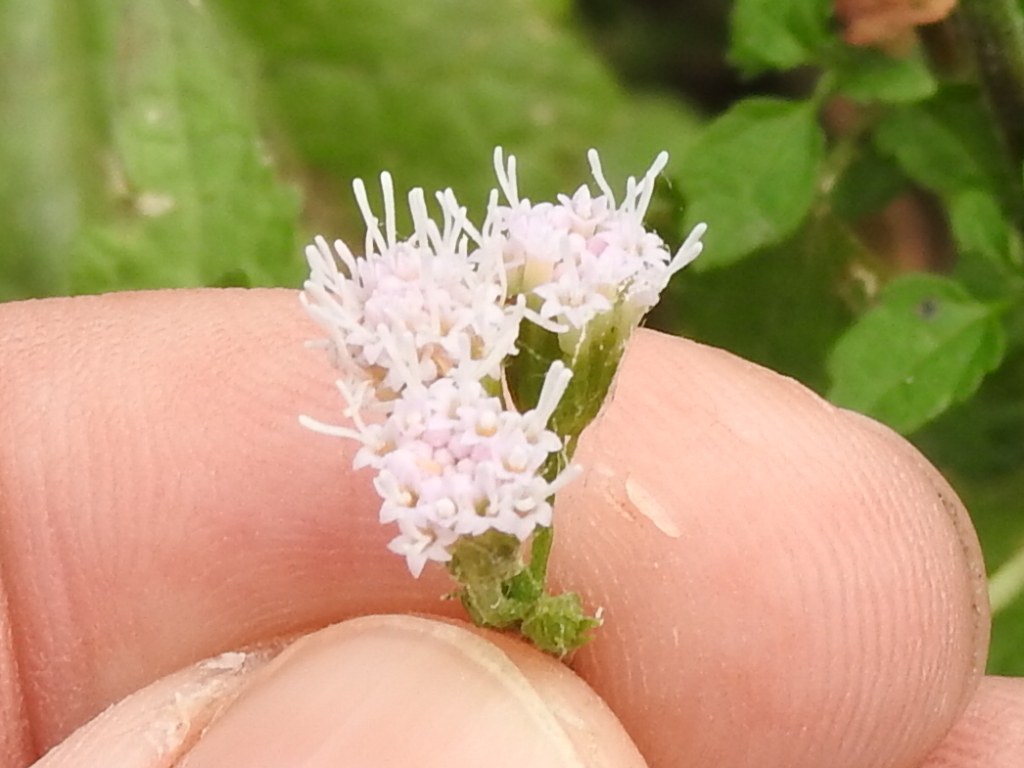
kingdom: Plantae
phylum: Tracheophyta
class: Magnoliopsida
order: Asterales
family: Asteraceae
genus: Fleischmannia
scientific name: Fleischmannia incarnata
